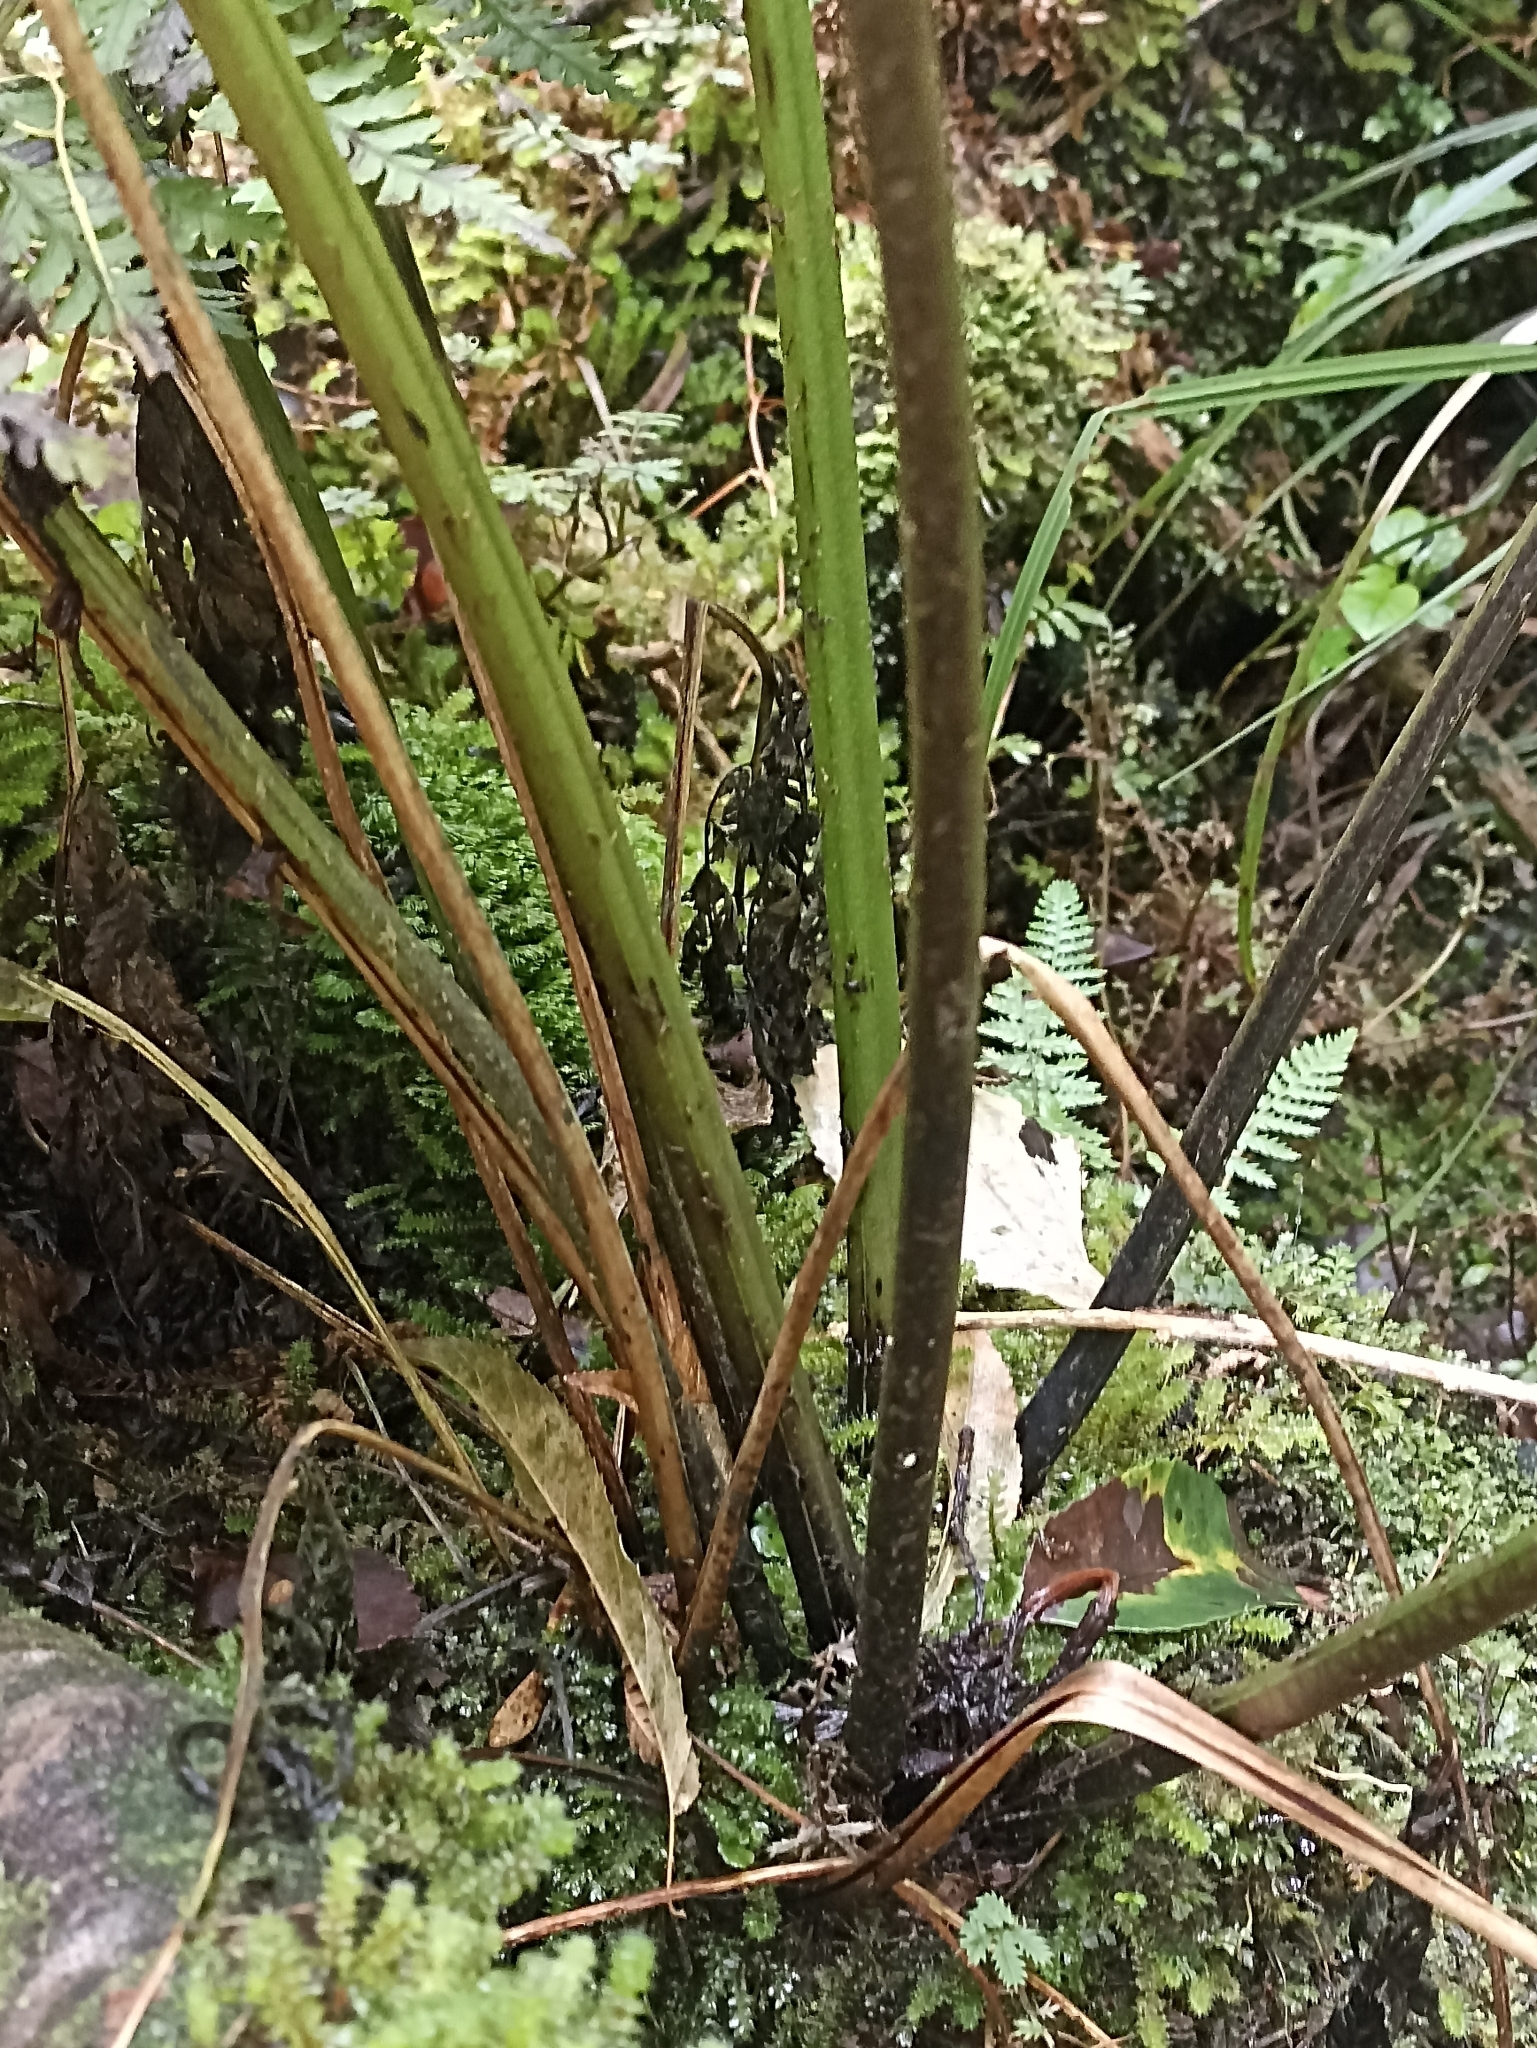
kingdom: Plantae
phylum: Tracheophyta
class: Polypodiopsida
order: Polypodiales
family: Athyriaceae
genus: Diplazium
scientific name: Diplazium australe
